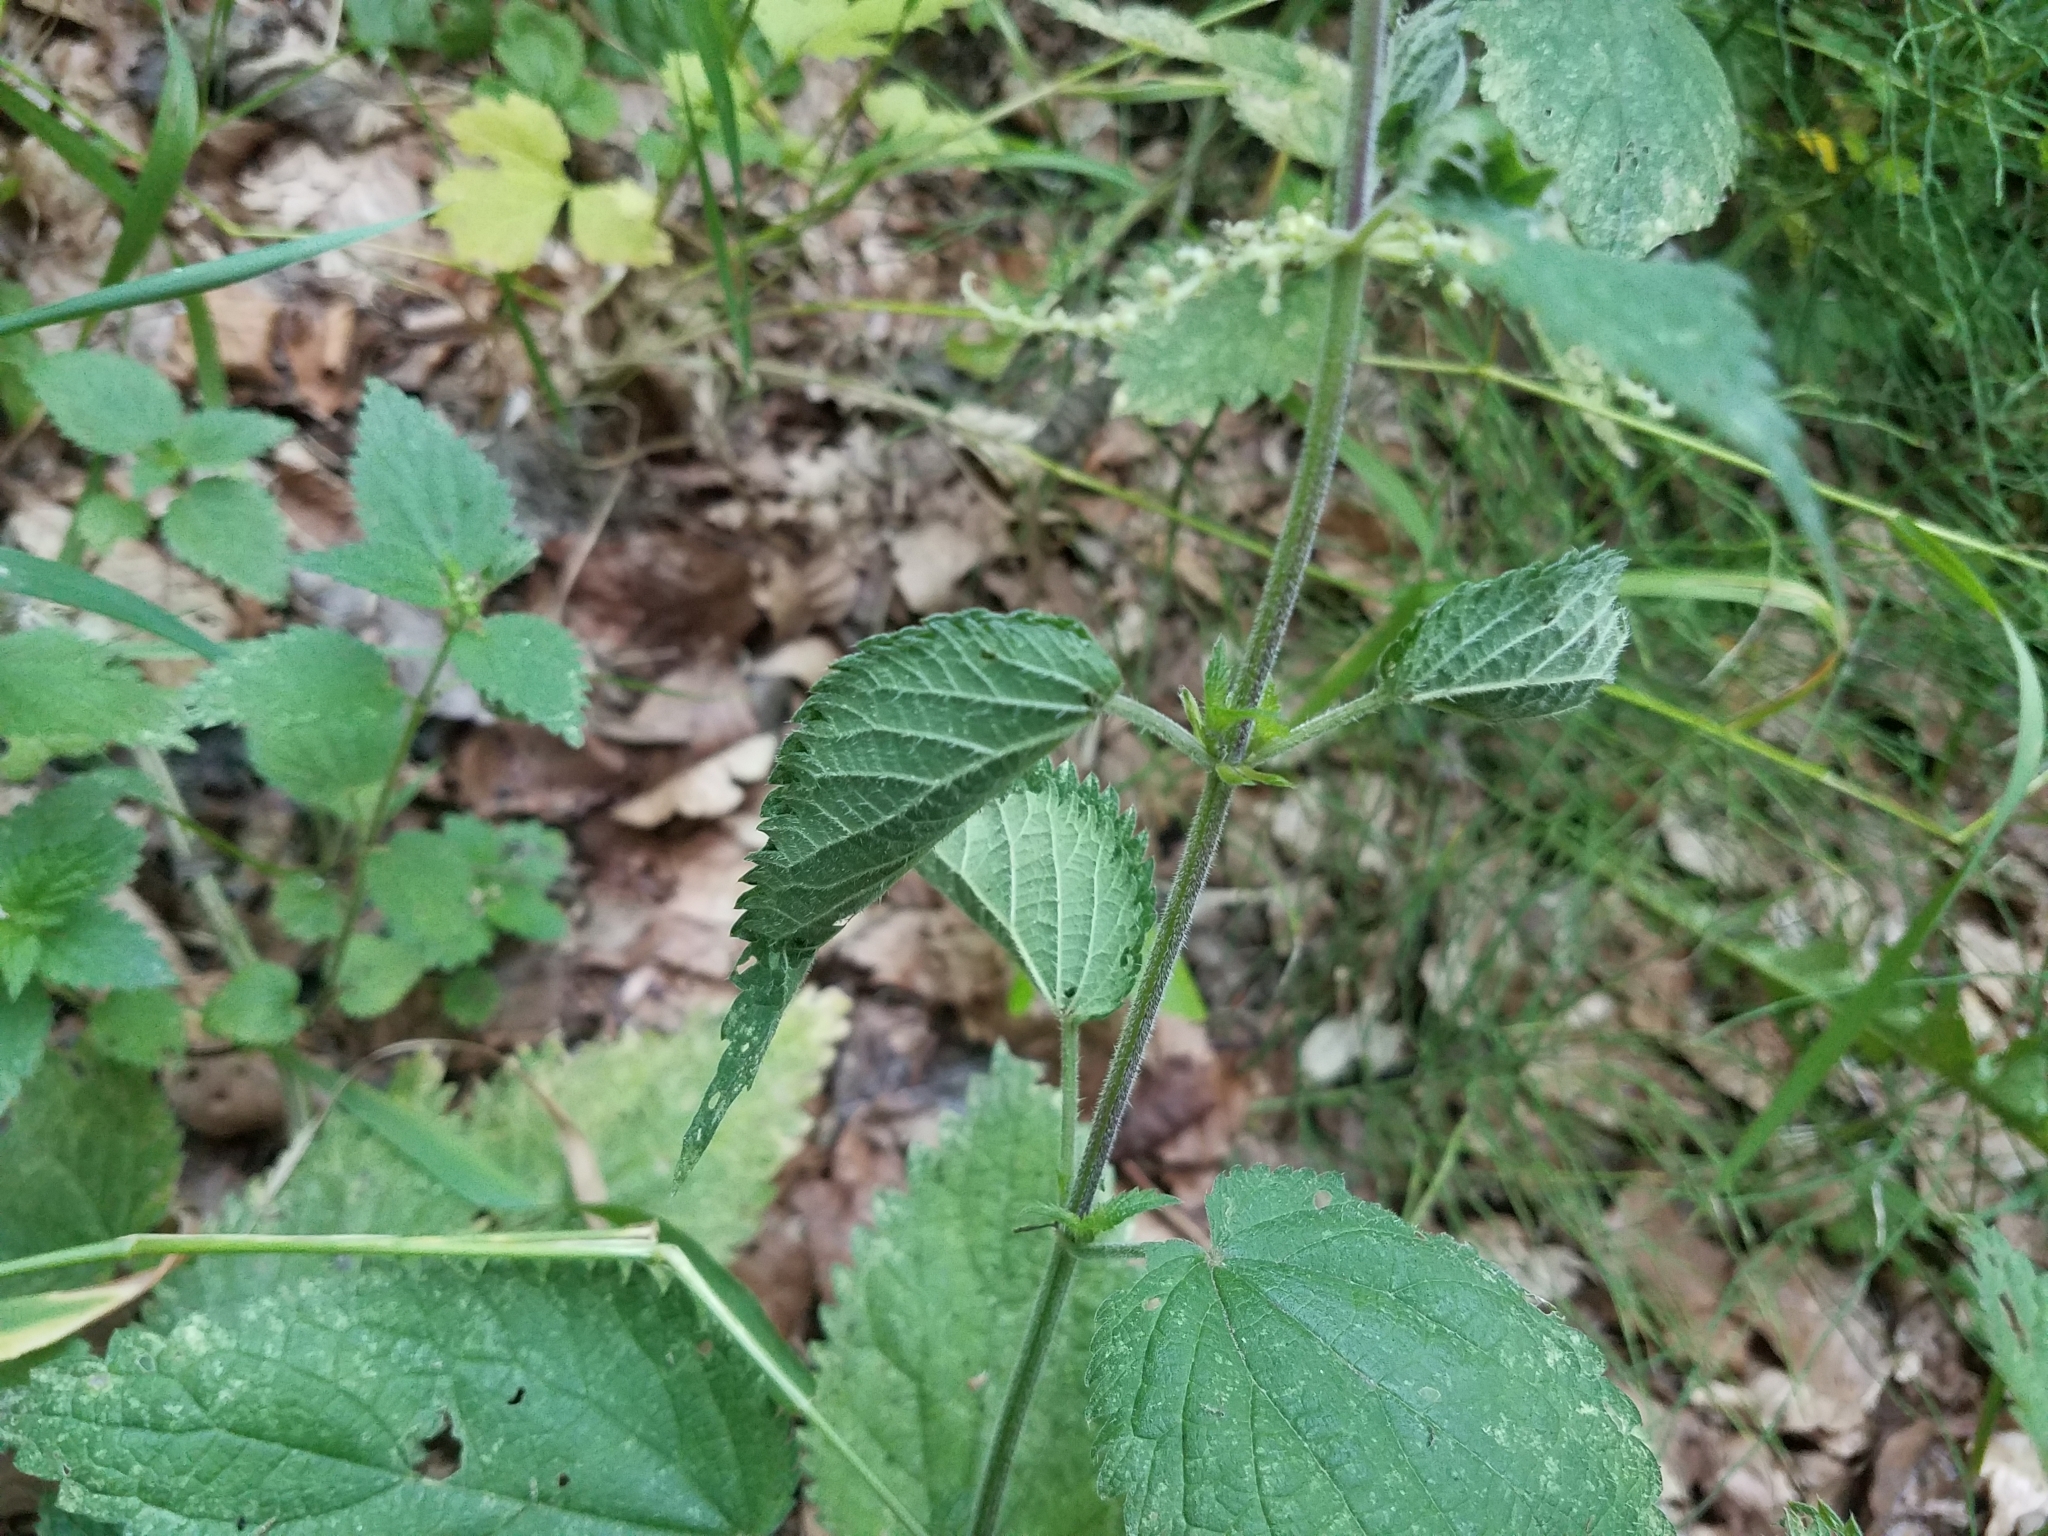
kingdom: Animalia
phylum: Arthropoda
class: Insecta
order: Lepidoptera
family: Nymphalidae
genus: Vanessa
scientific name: Vanessa atalanta
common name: Red admiral
